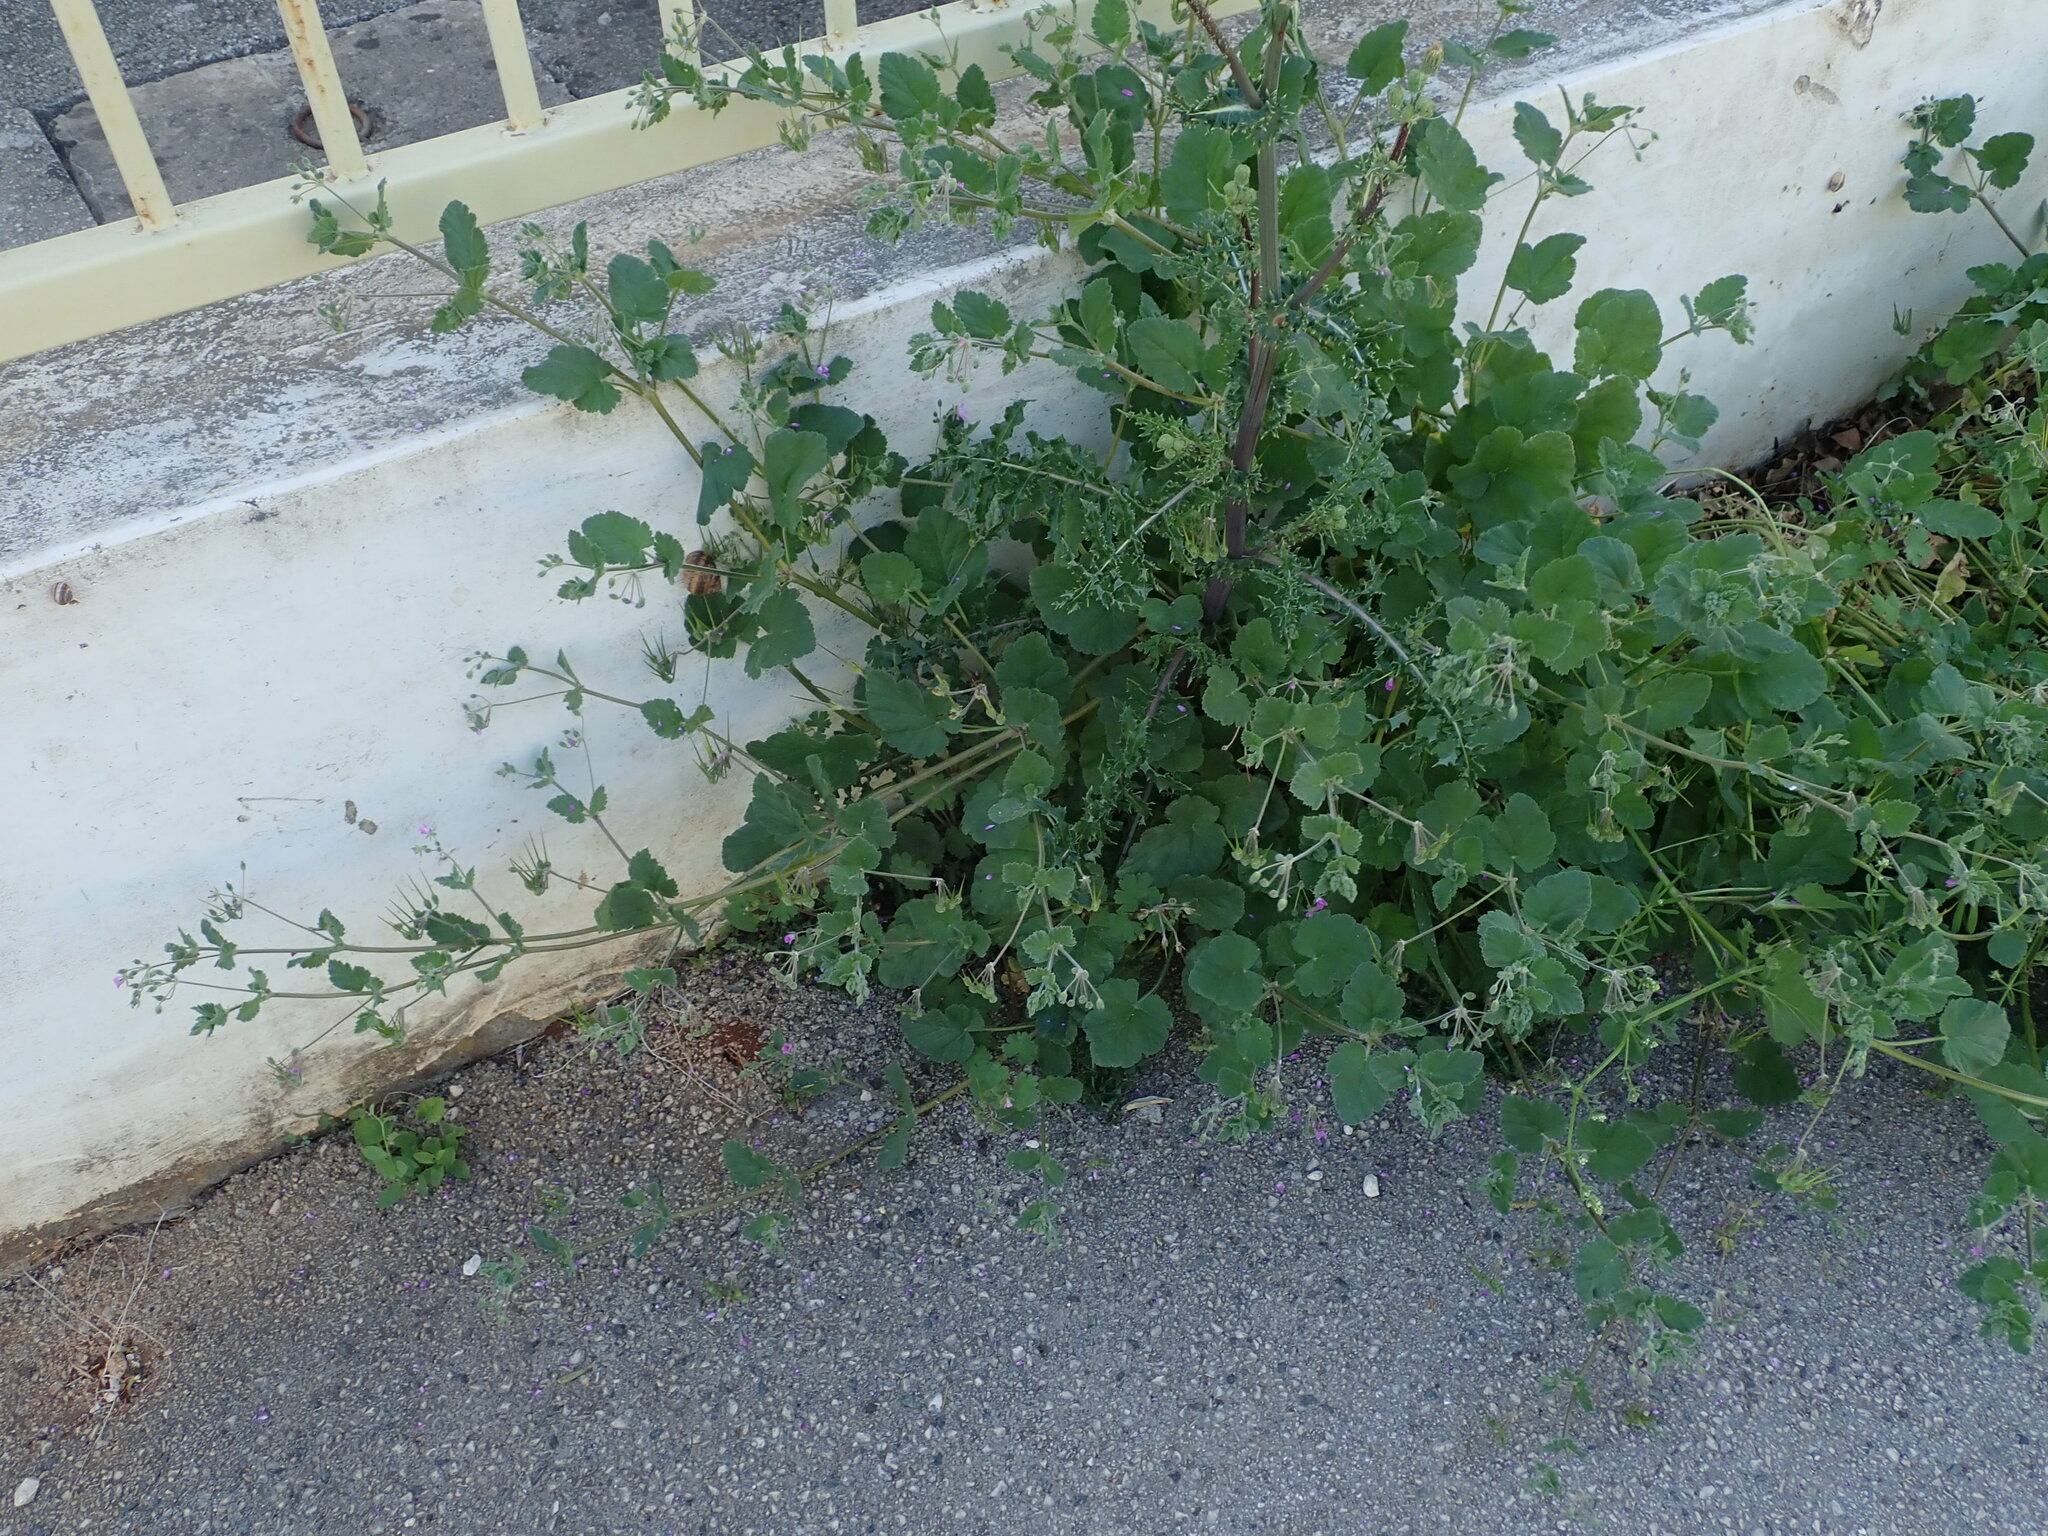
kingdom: Plantae
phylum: Tracheophyta
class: Magnoliopsida
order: Geraniales
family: Geraniaceae
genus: Erodium
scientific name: Erodium malacoides
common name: Soft stork's-bill
